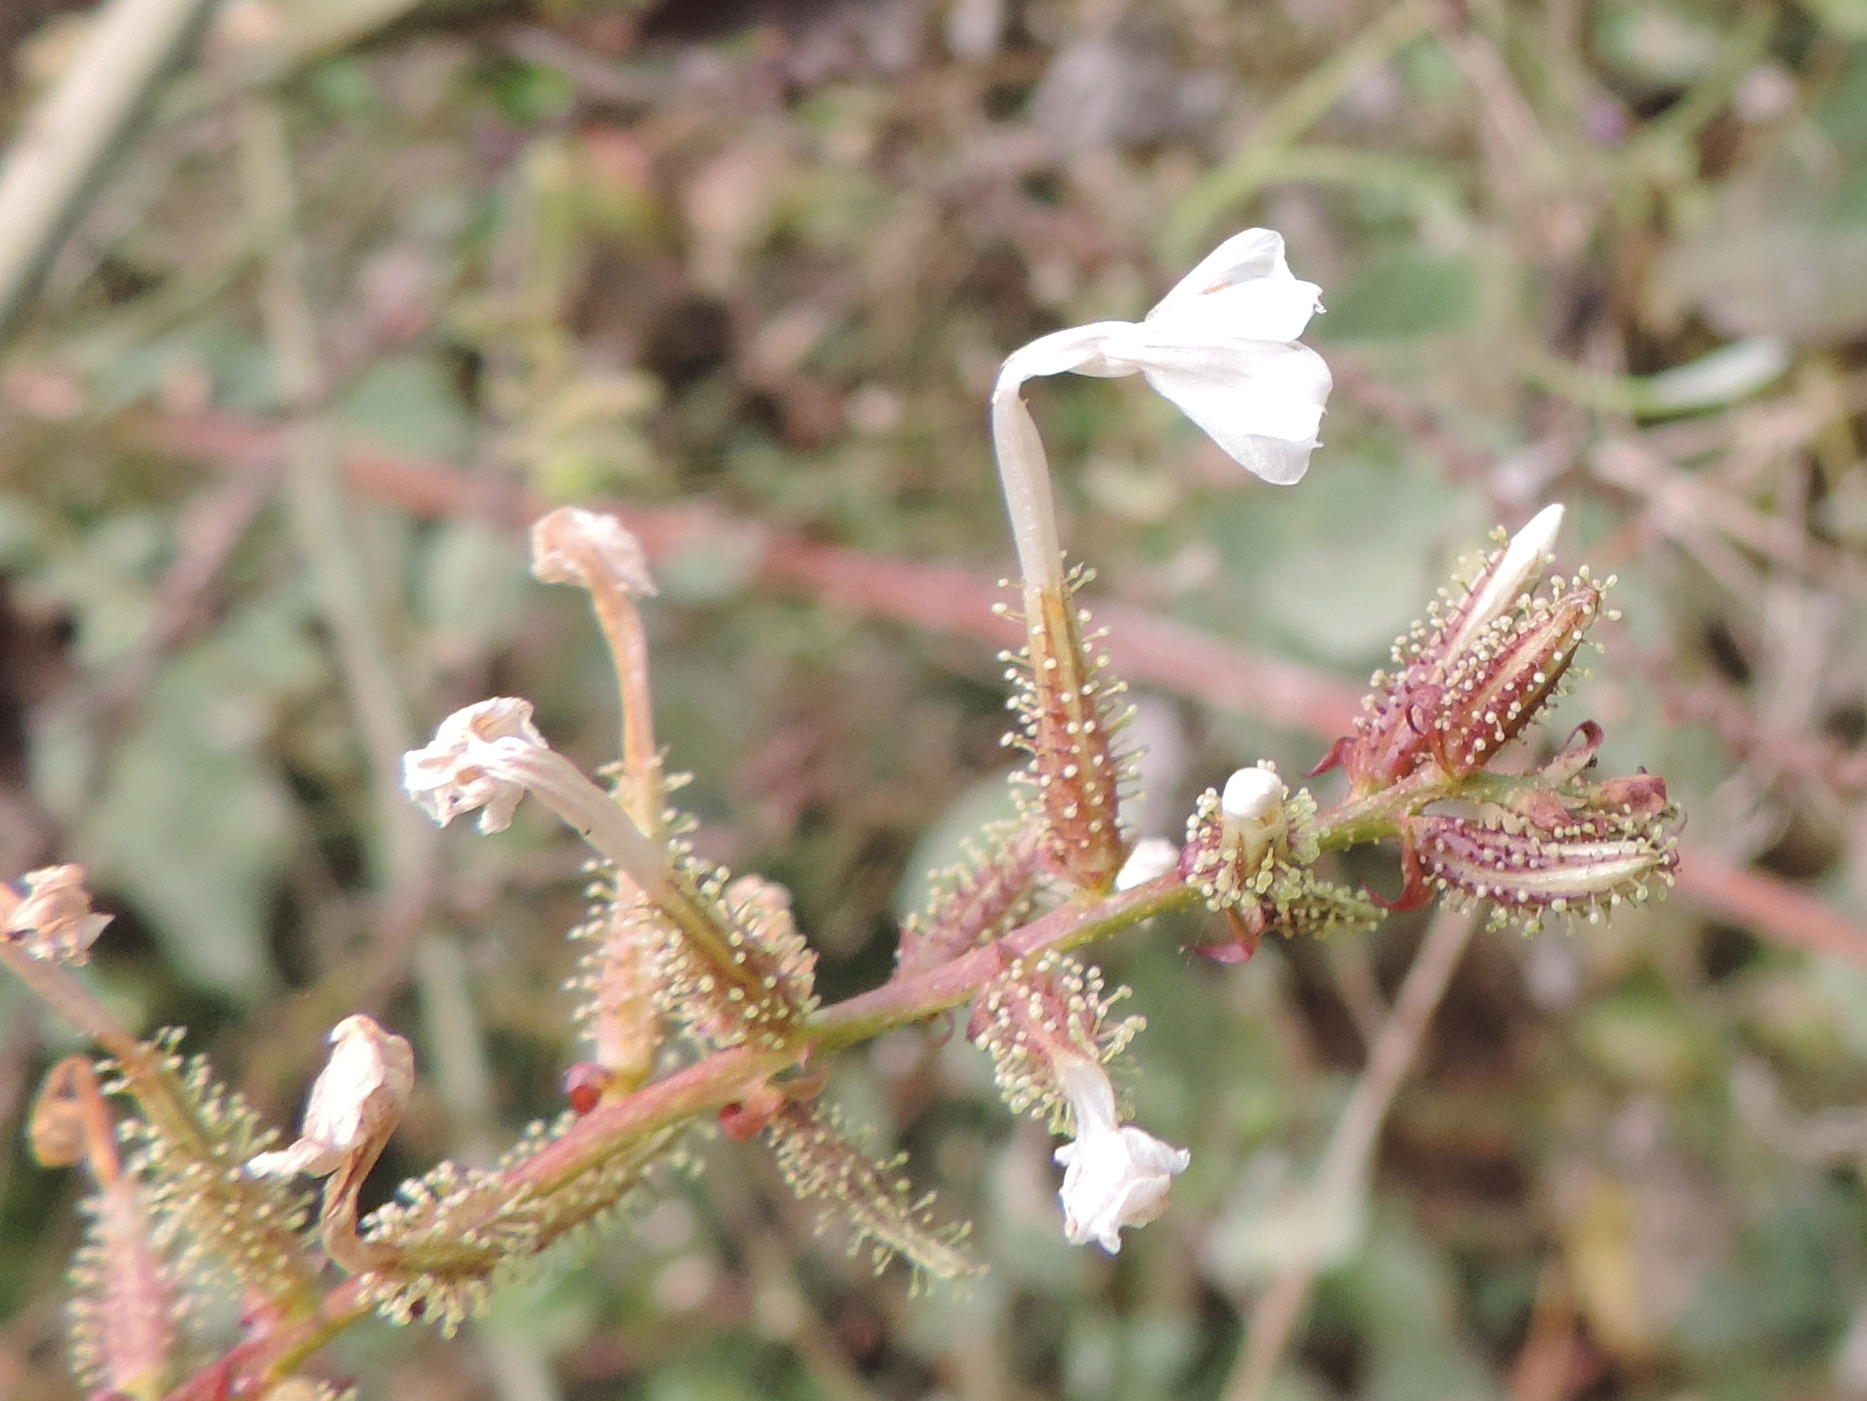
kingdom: Plantae
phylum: Tracheophyta
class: Magnoliopsida
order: Caryophyllales
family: Plumbaginaceae
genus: Plumbago
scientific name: Plumbago zeylanica
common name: Doctorbush
